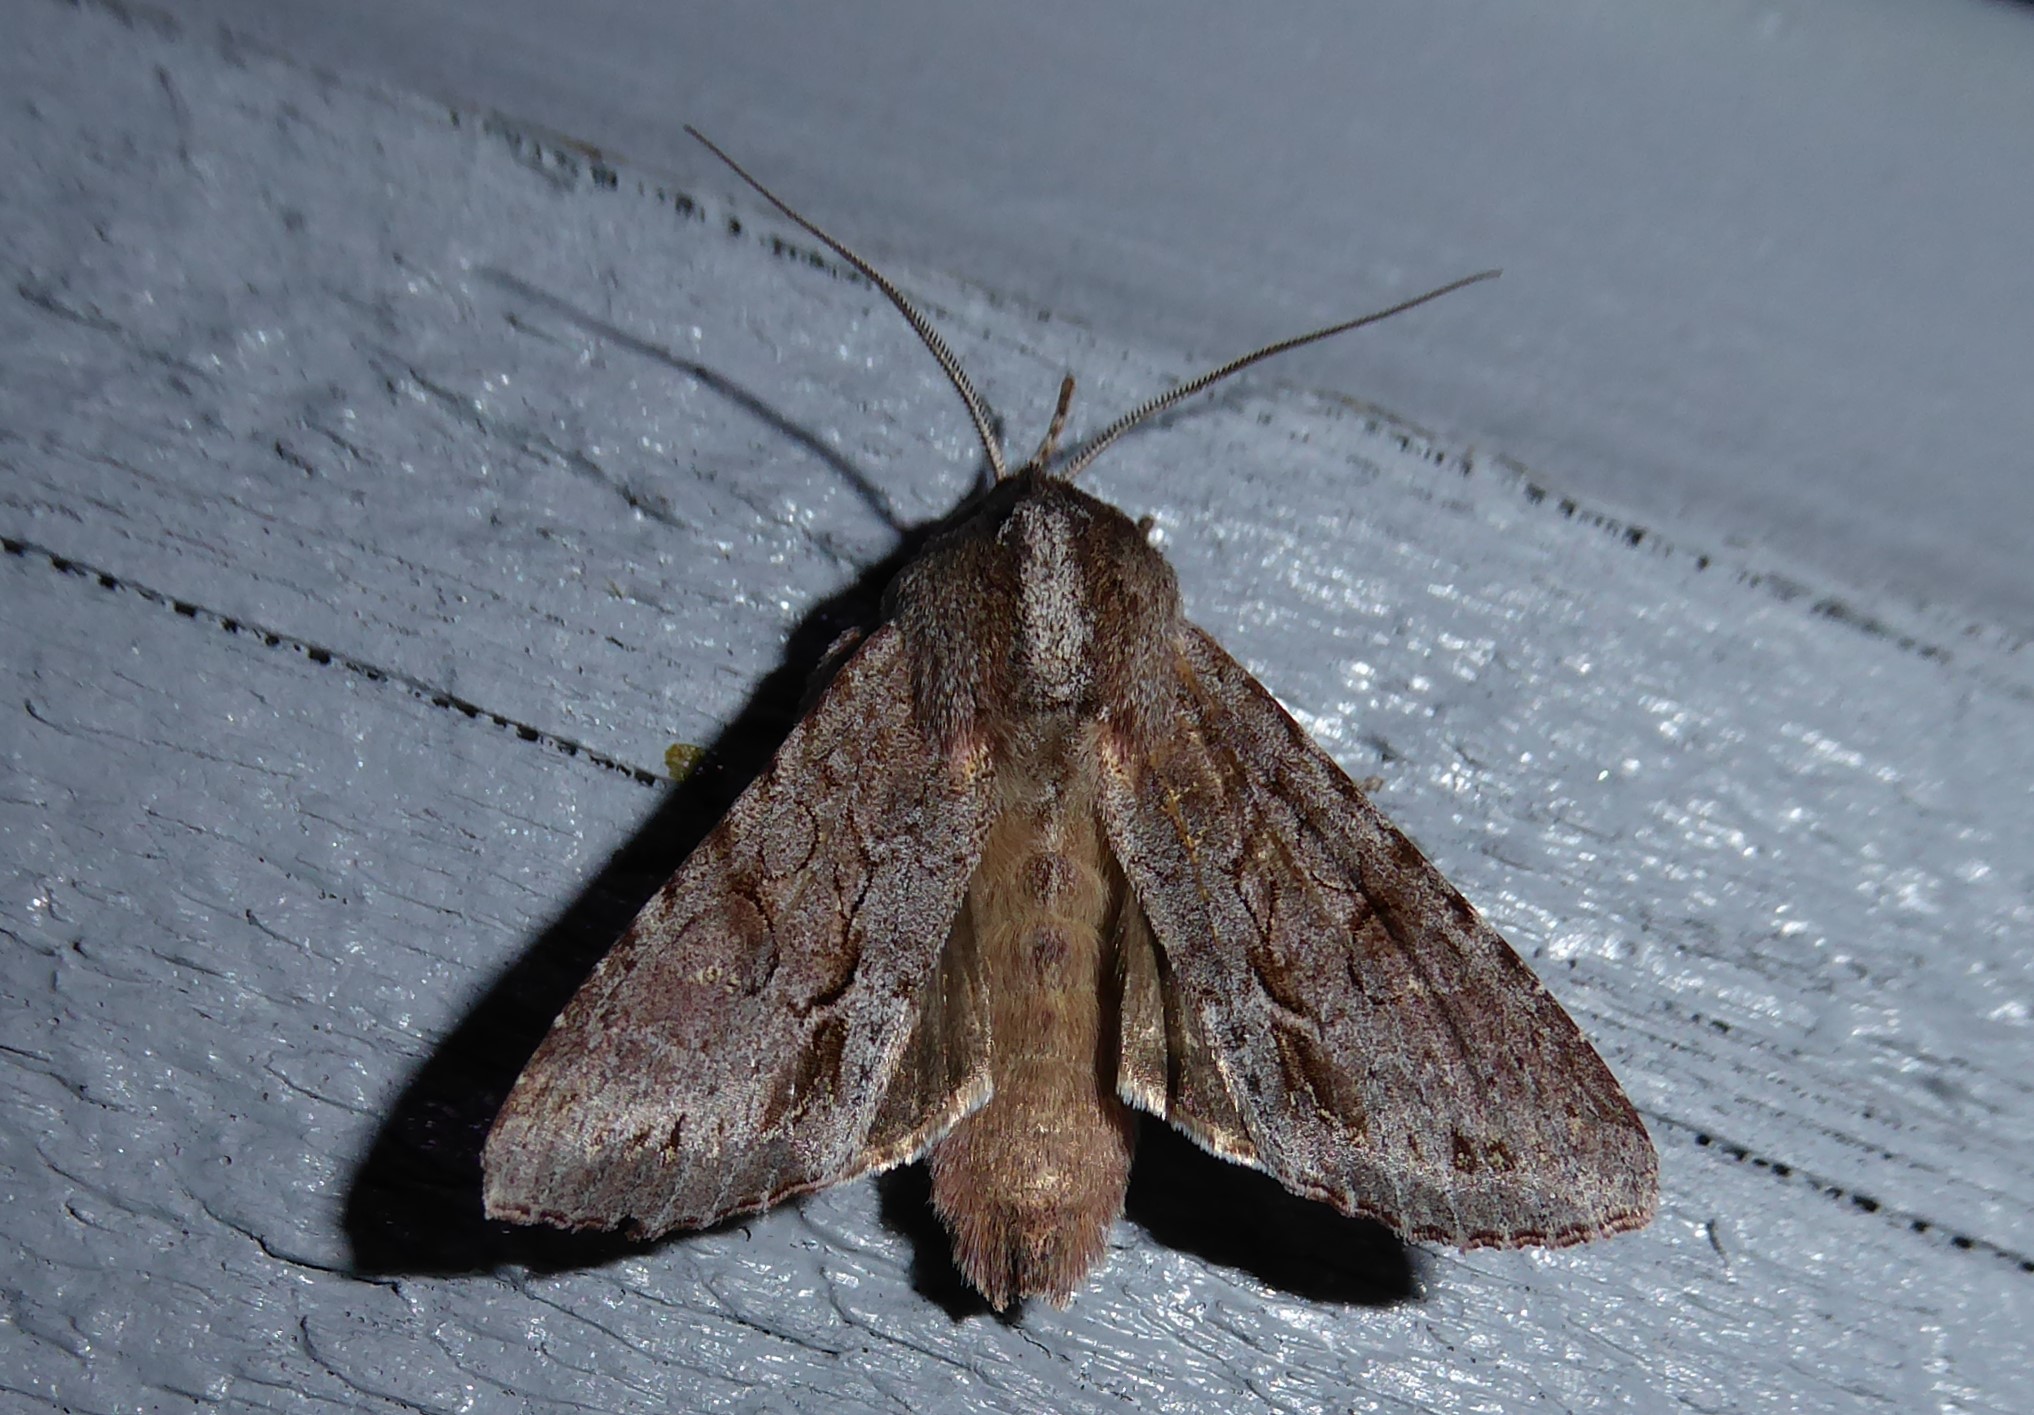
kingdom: Animalia
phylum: Arthropoda
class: Insecta
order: Lepidoptera
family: Noctuidae
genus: Ichneutica
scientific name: Ichneutica
